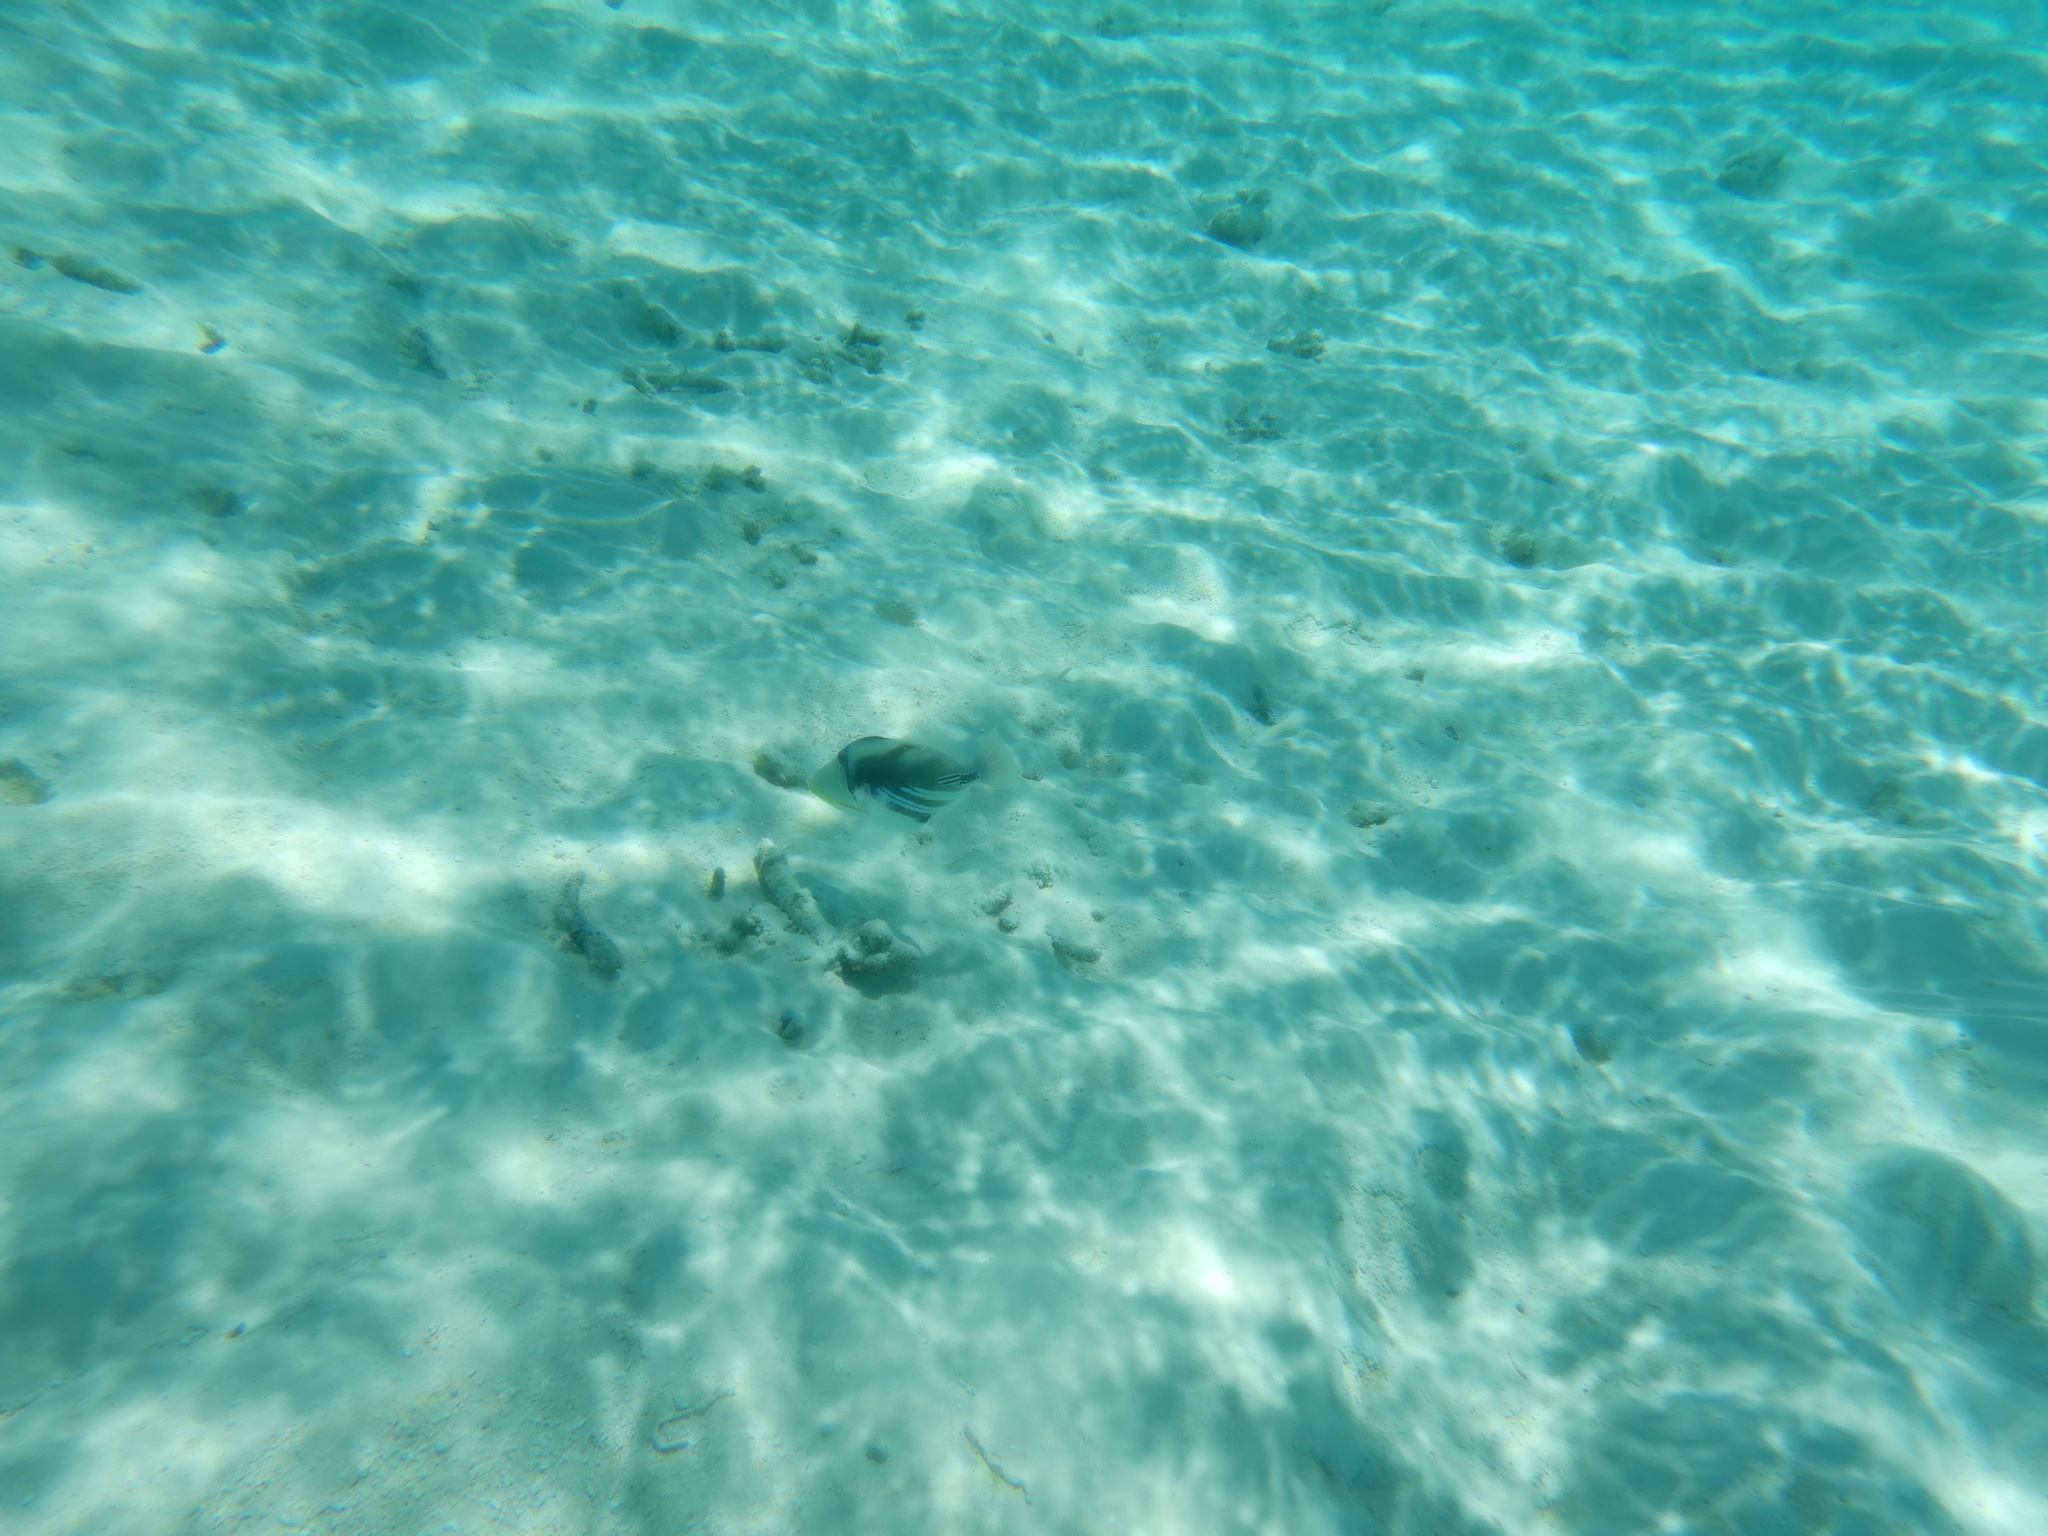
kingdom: Animalia
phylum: Chordata
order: Tetraodontiformes
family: Balistidae
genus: Rhinecanthus
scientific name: Rhinecanthus aculeatus
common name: White-banded triggerfish
